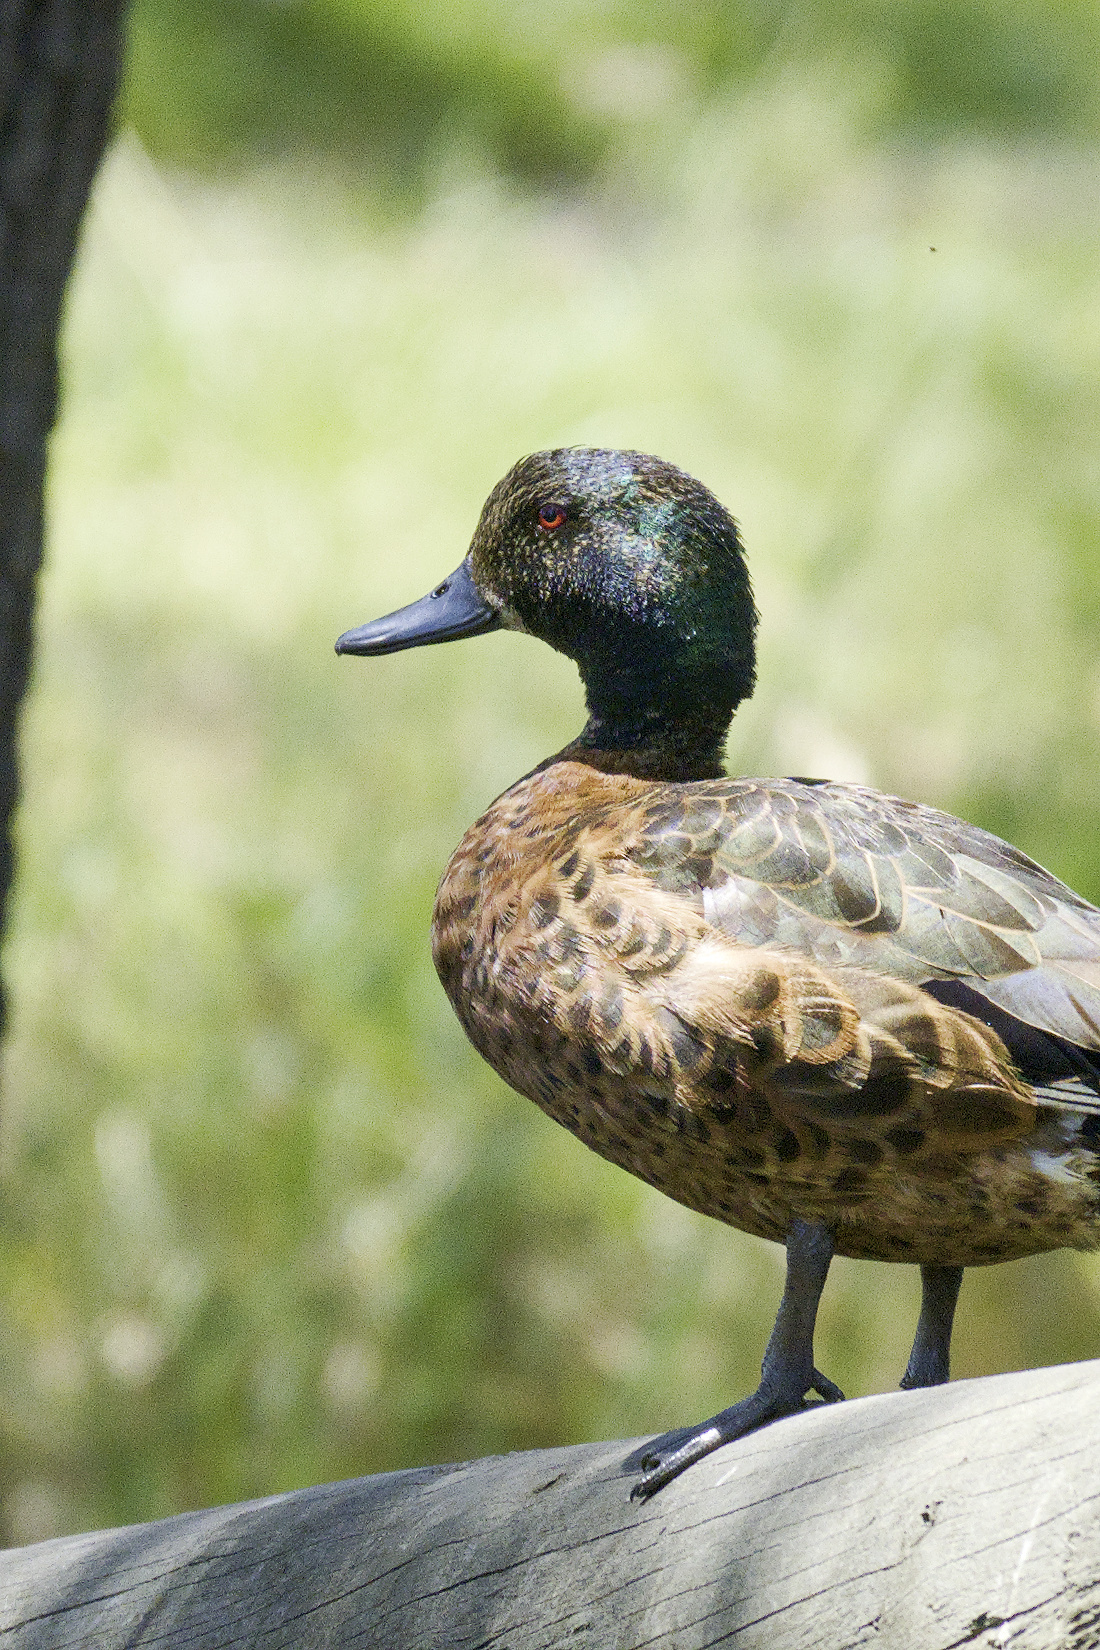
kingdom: Animalia
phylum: Chordata
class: Aves
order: Anseriformes
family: Anatidae
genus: Anas
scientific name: Anas castanea
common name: Chestnut teal
